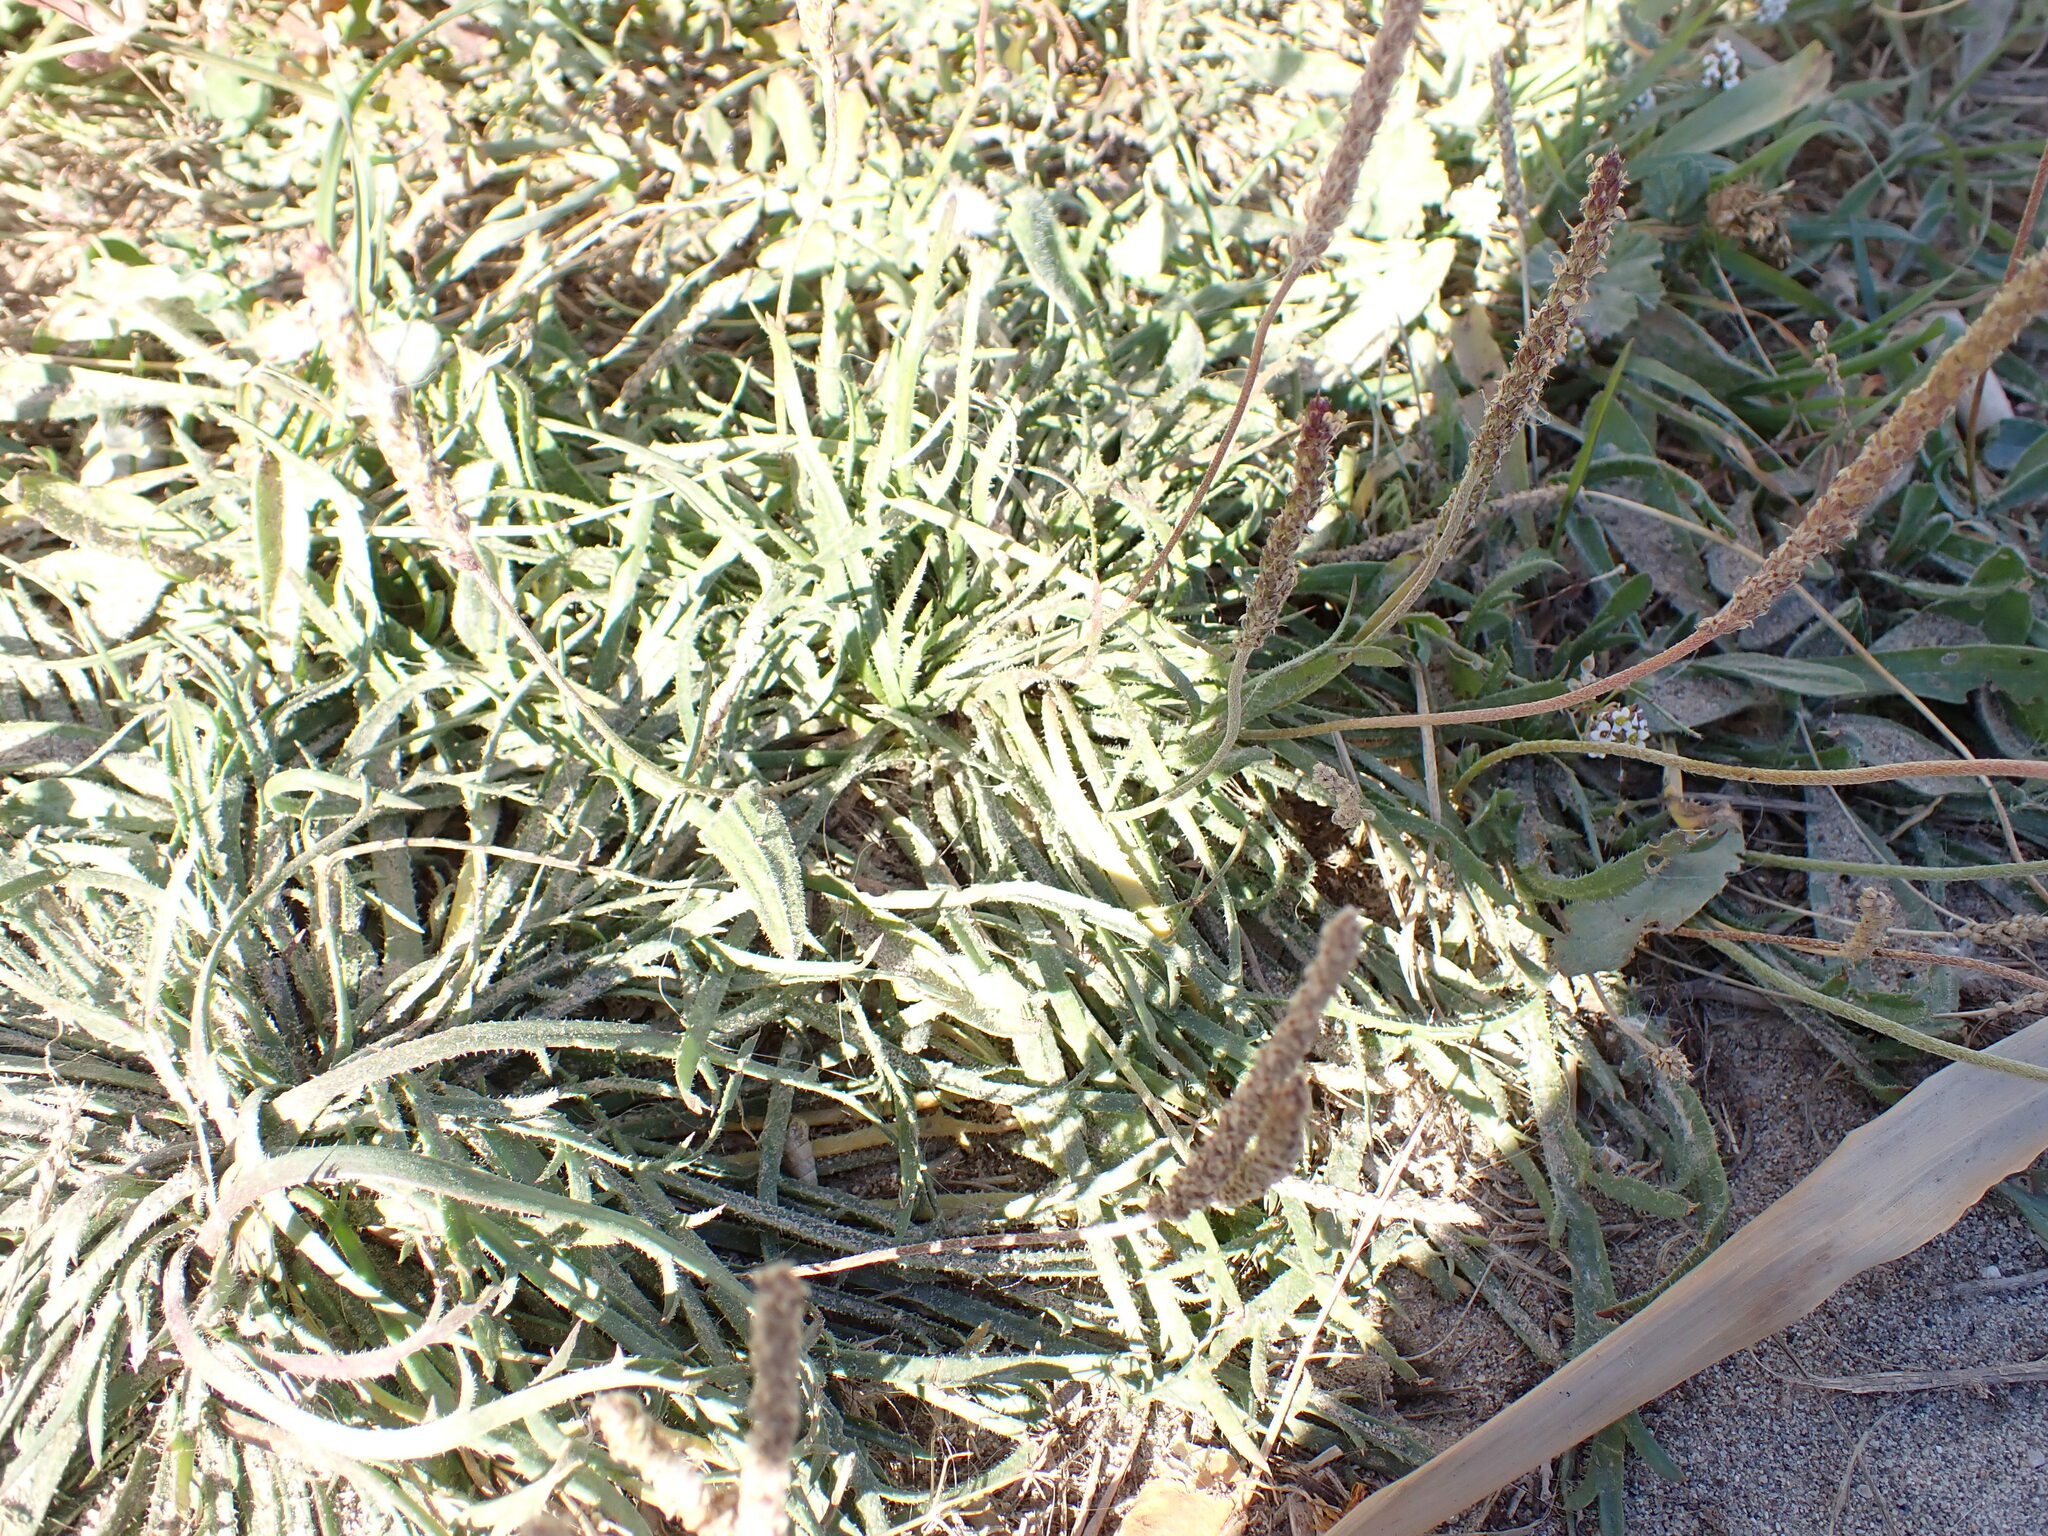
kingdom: Plantae
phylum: Tracheophyta
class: Magnoliopsida
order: Lamiales
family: Plantaginaceae
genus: Plantago
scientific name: Plantago coronopus
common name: Buck's-horn plantain
